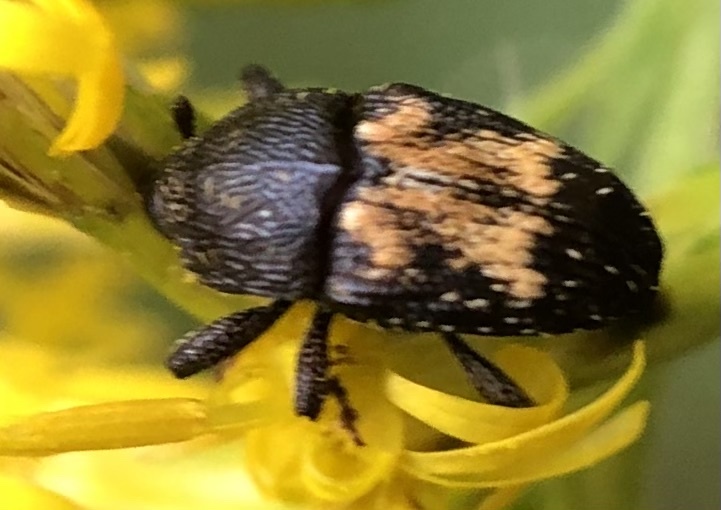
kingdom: Animalia
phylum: Arthropoda
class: Insecta
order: Coleoptera
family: Curculionidae
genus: Glyptobaris
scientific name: Glyptobaris lecontei
